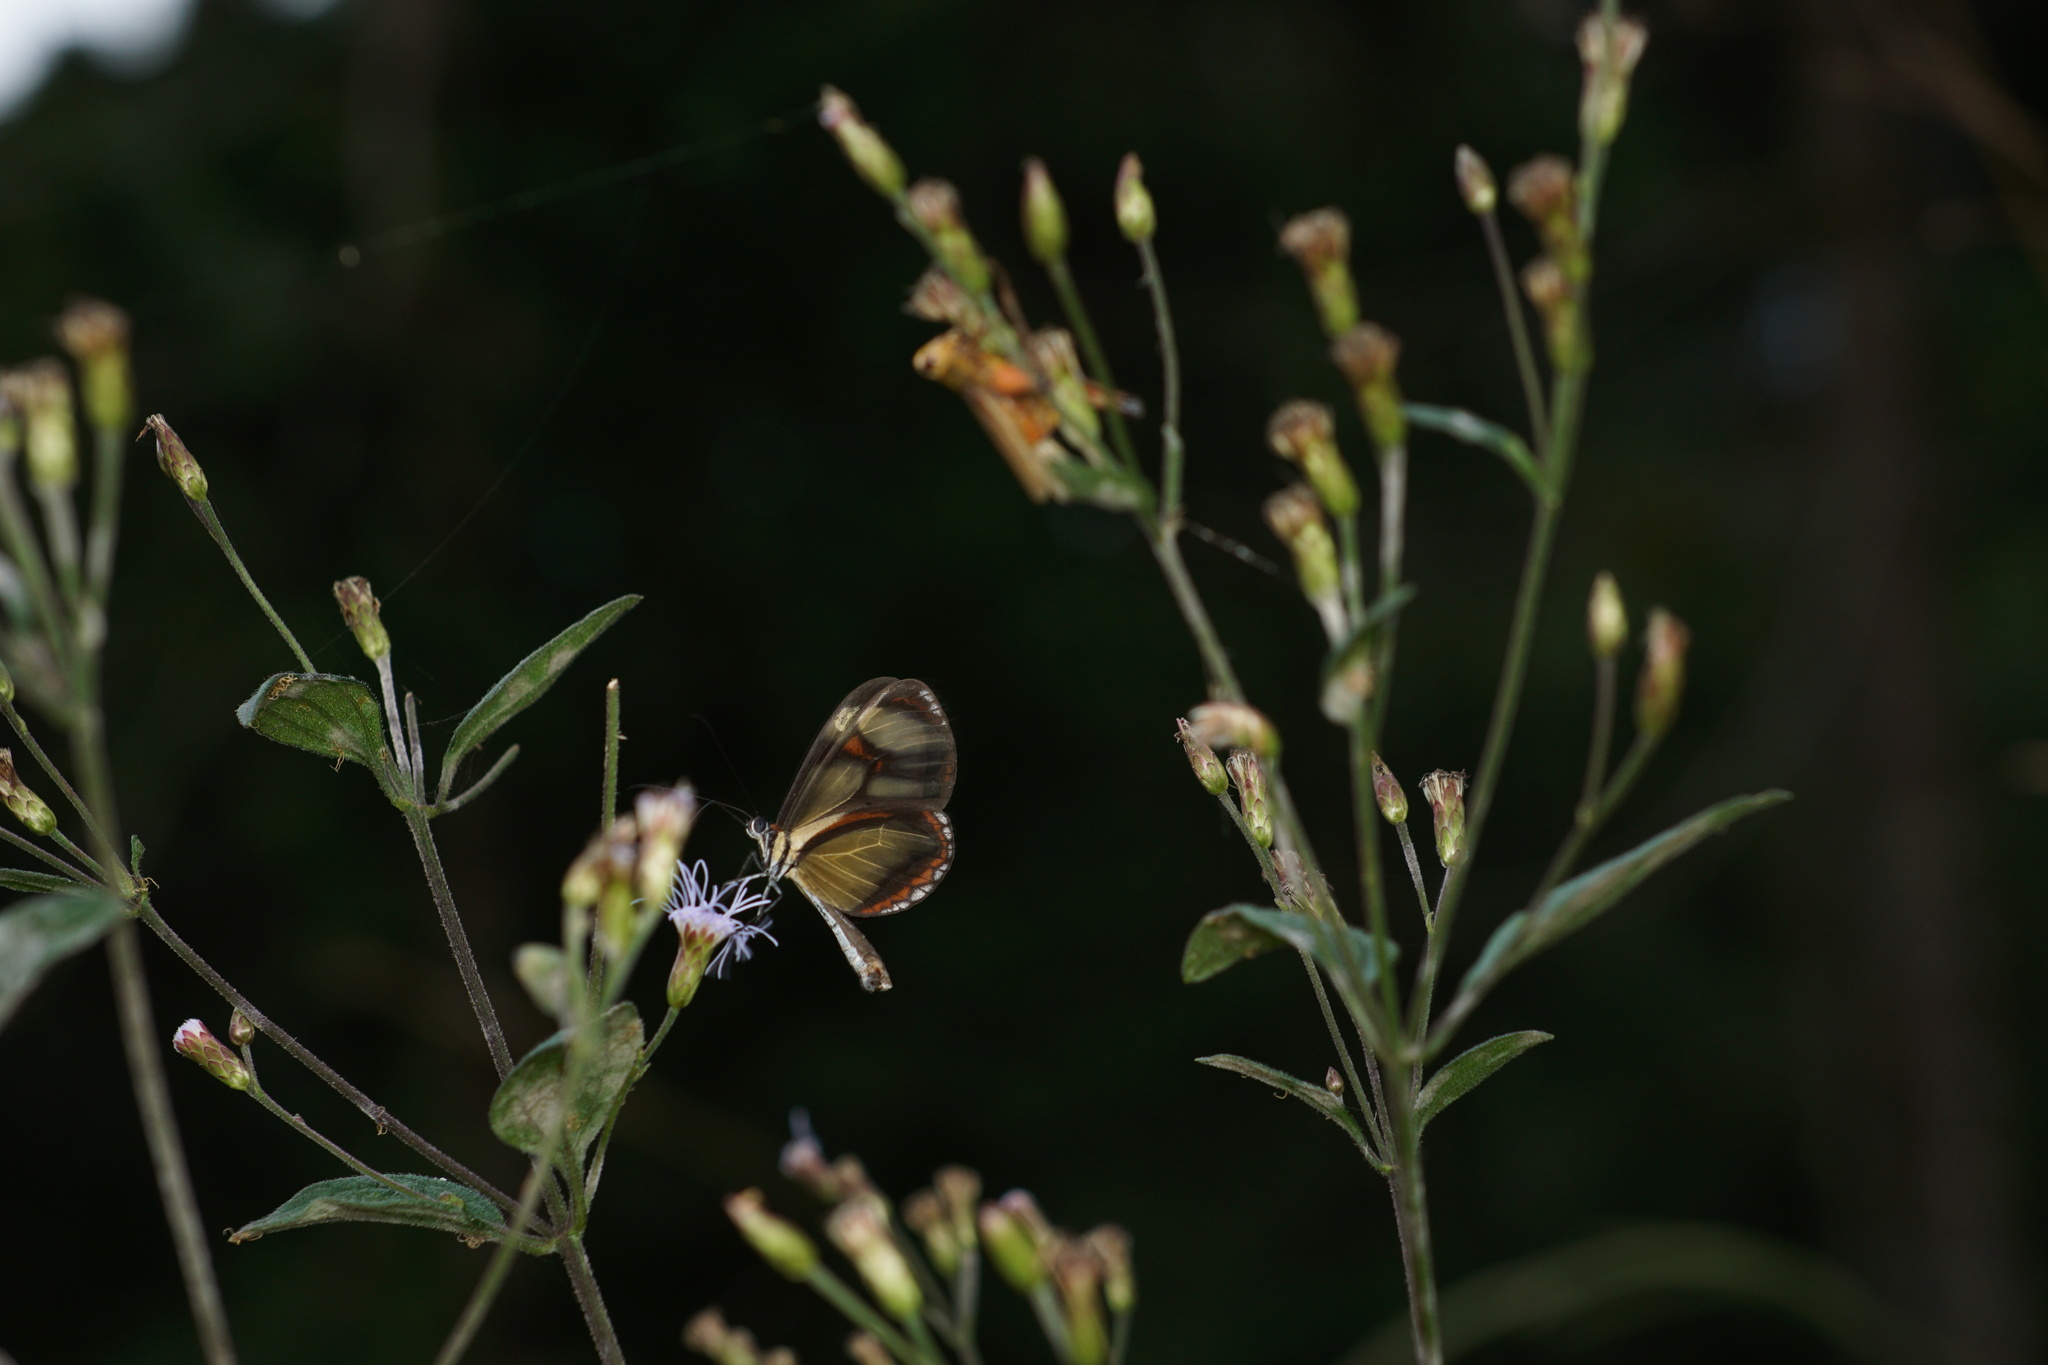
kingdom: Animalia
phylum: Arthropoda
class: Insecta
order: Lepidoptera
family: Nymphalidae
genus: Epityches
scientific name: Epityches eupompe
